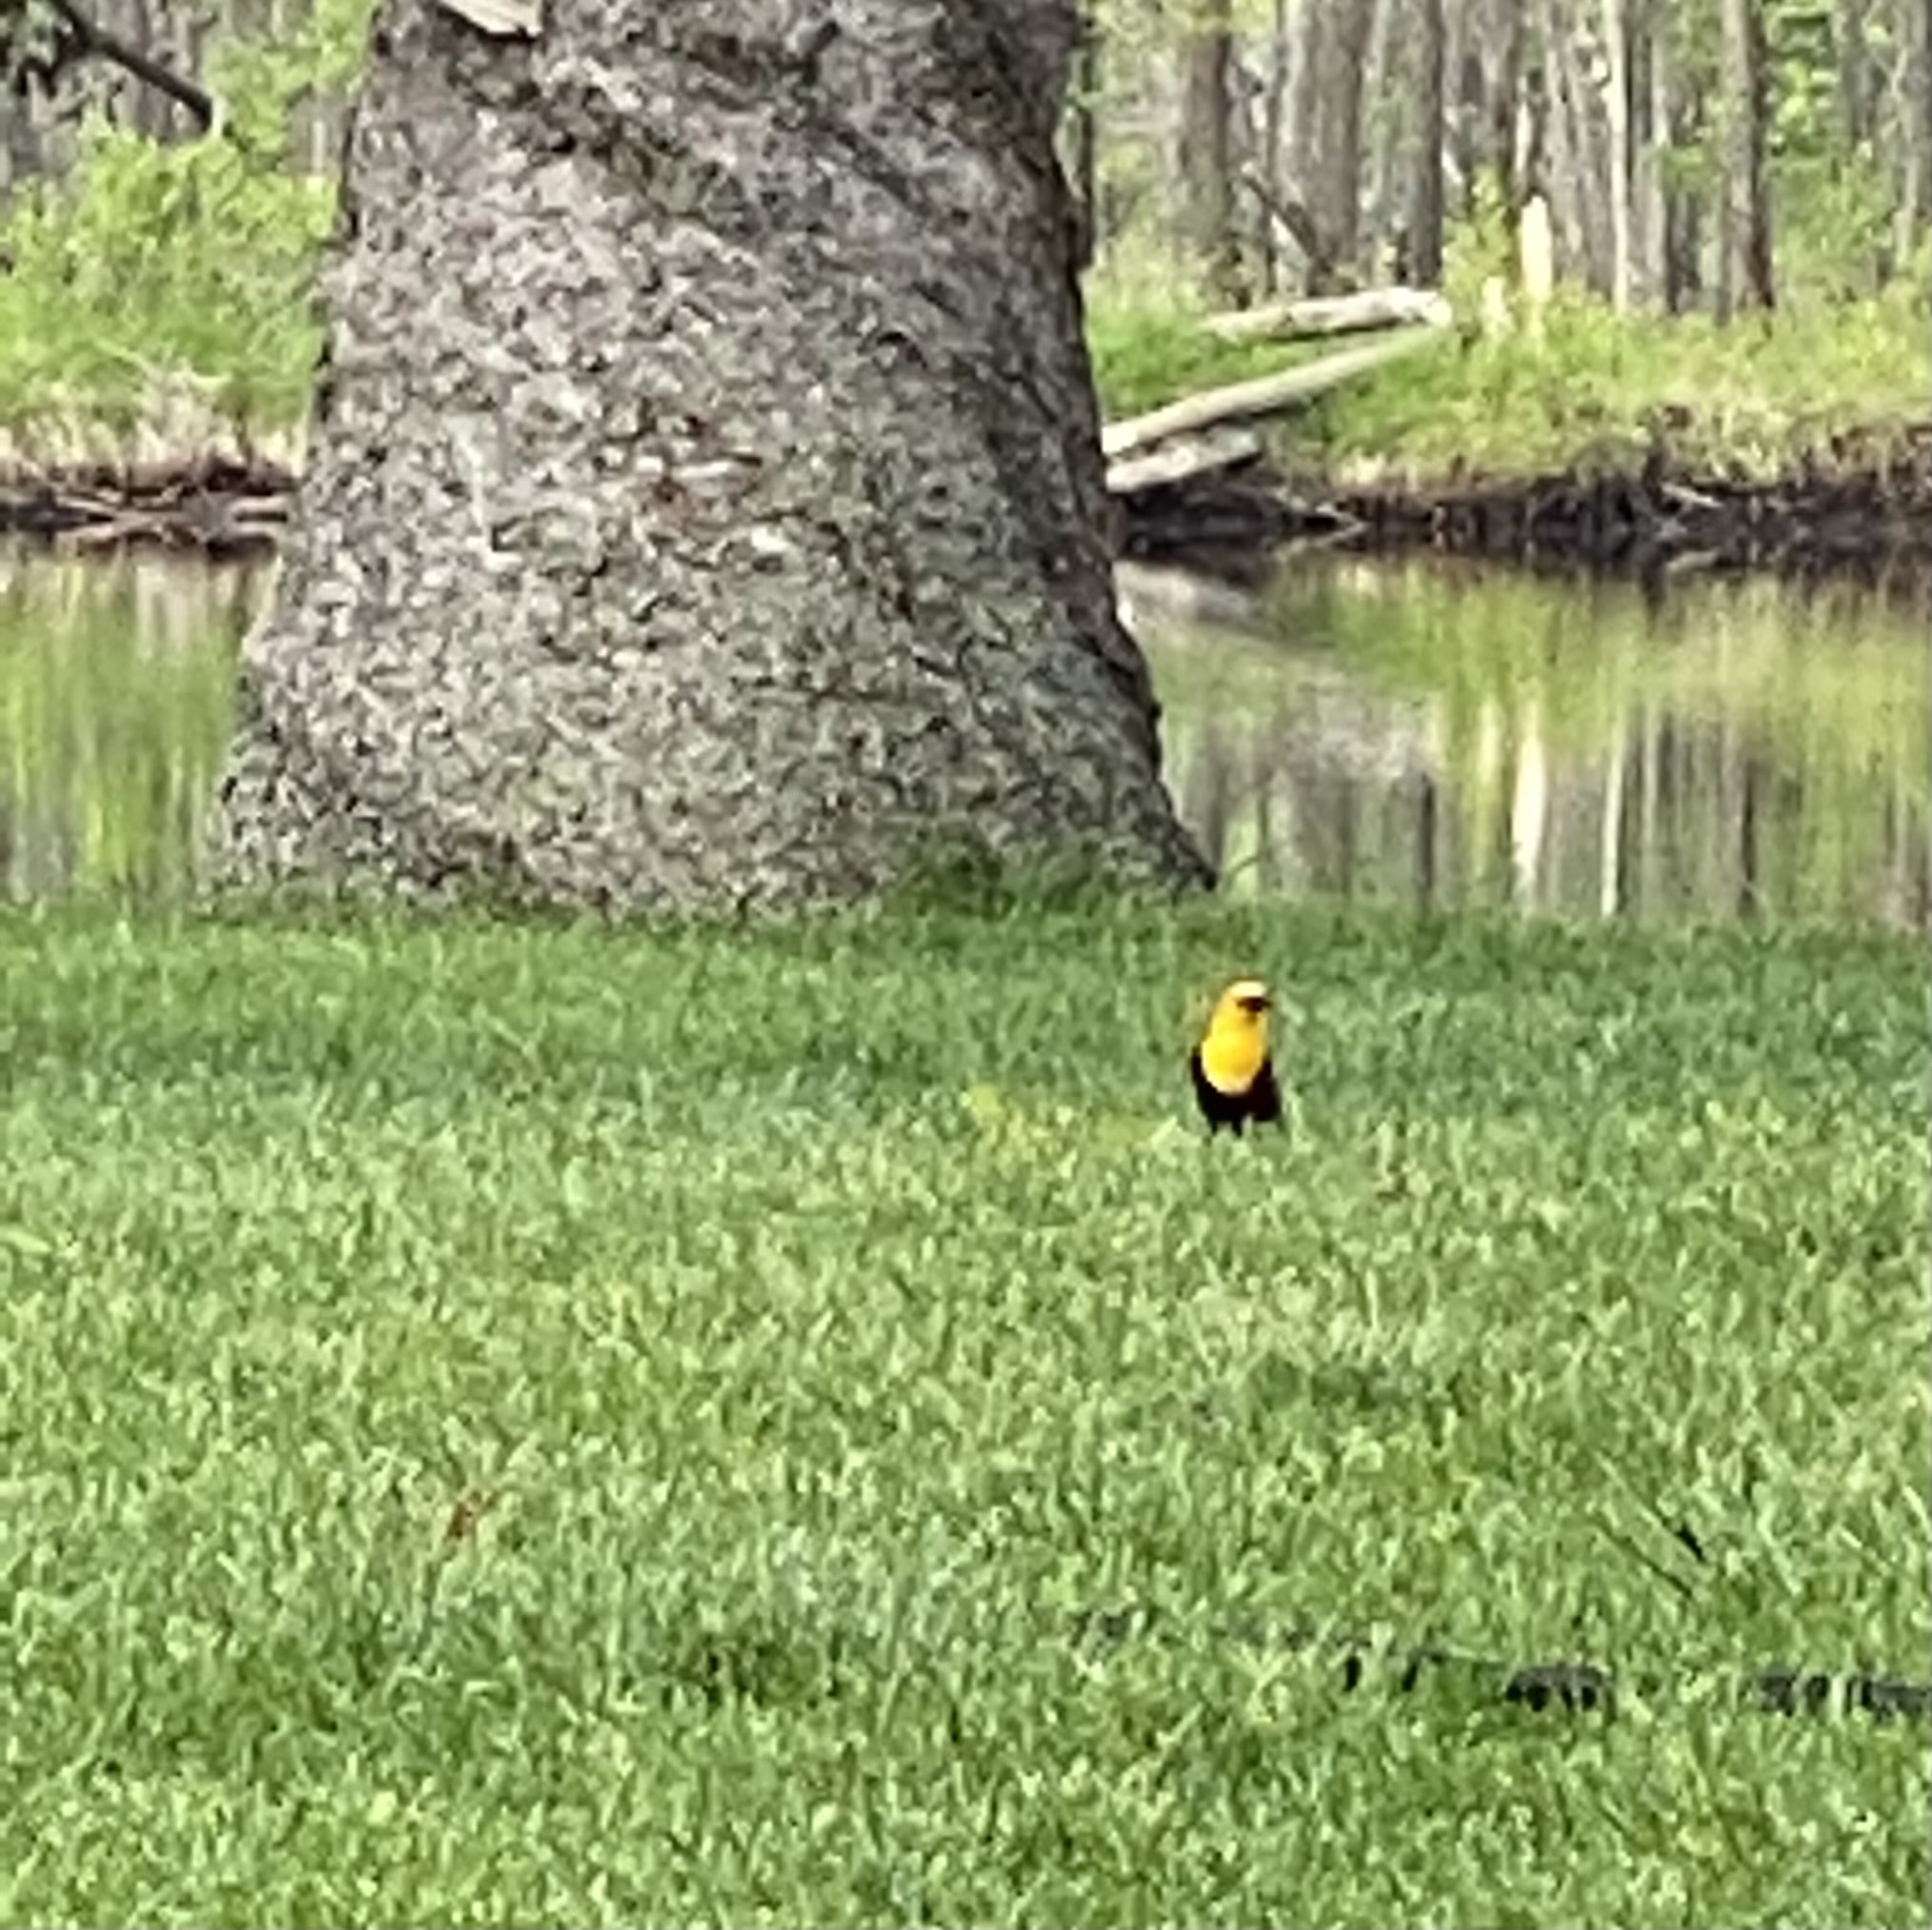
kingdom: Animalia
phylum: Chordata
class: Aves
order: Passeriformes
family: Icteridae
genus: Xanthocephalus
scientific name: Xanthocephalus xanthocephalus
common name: Yellow-headed blackbird
